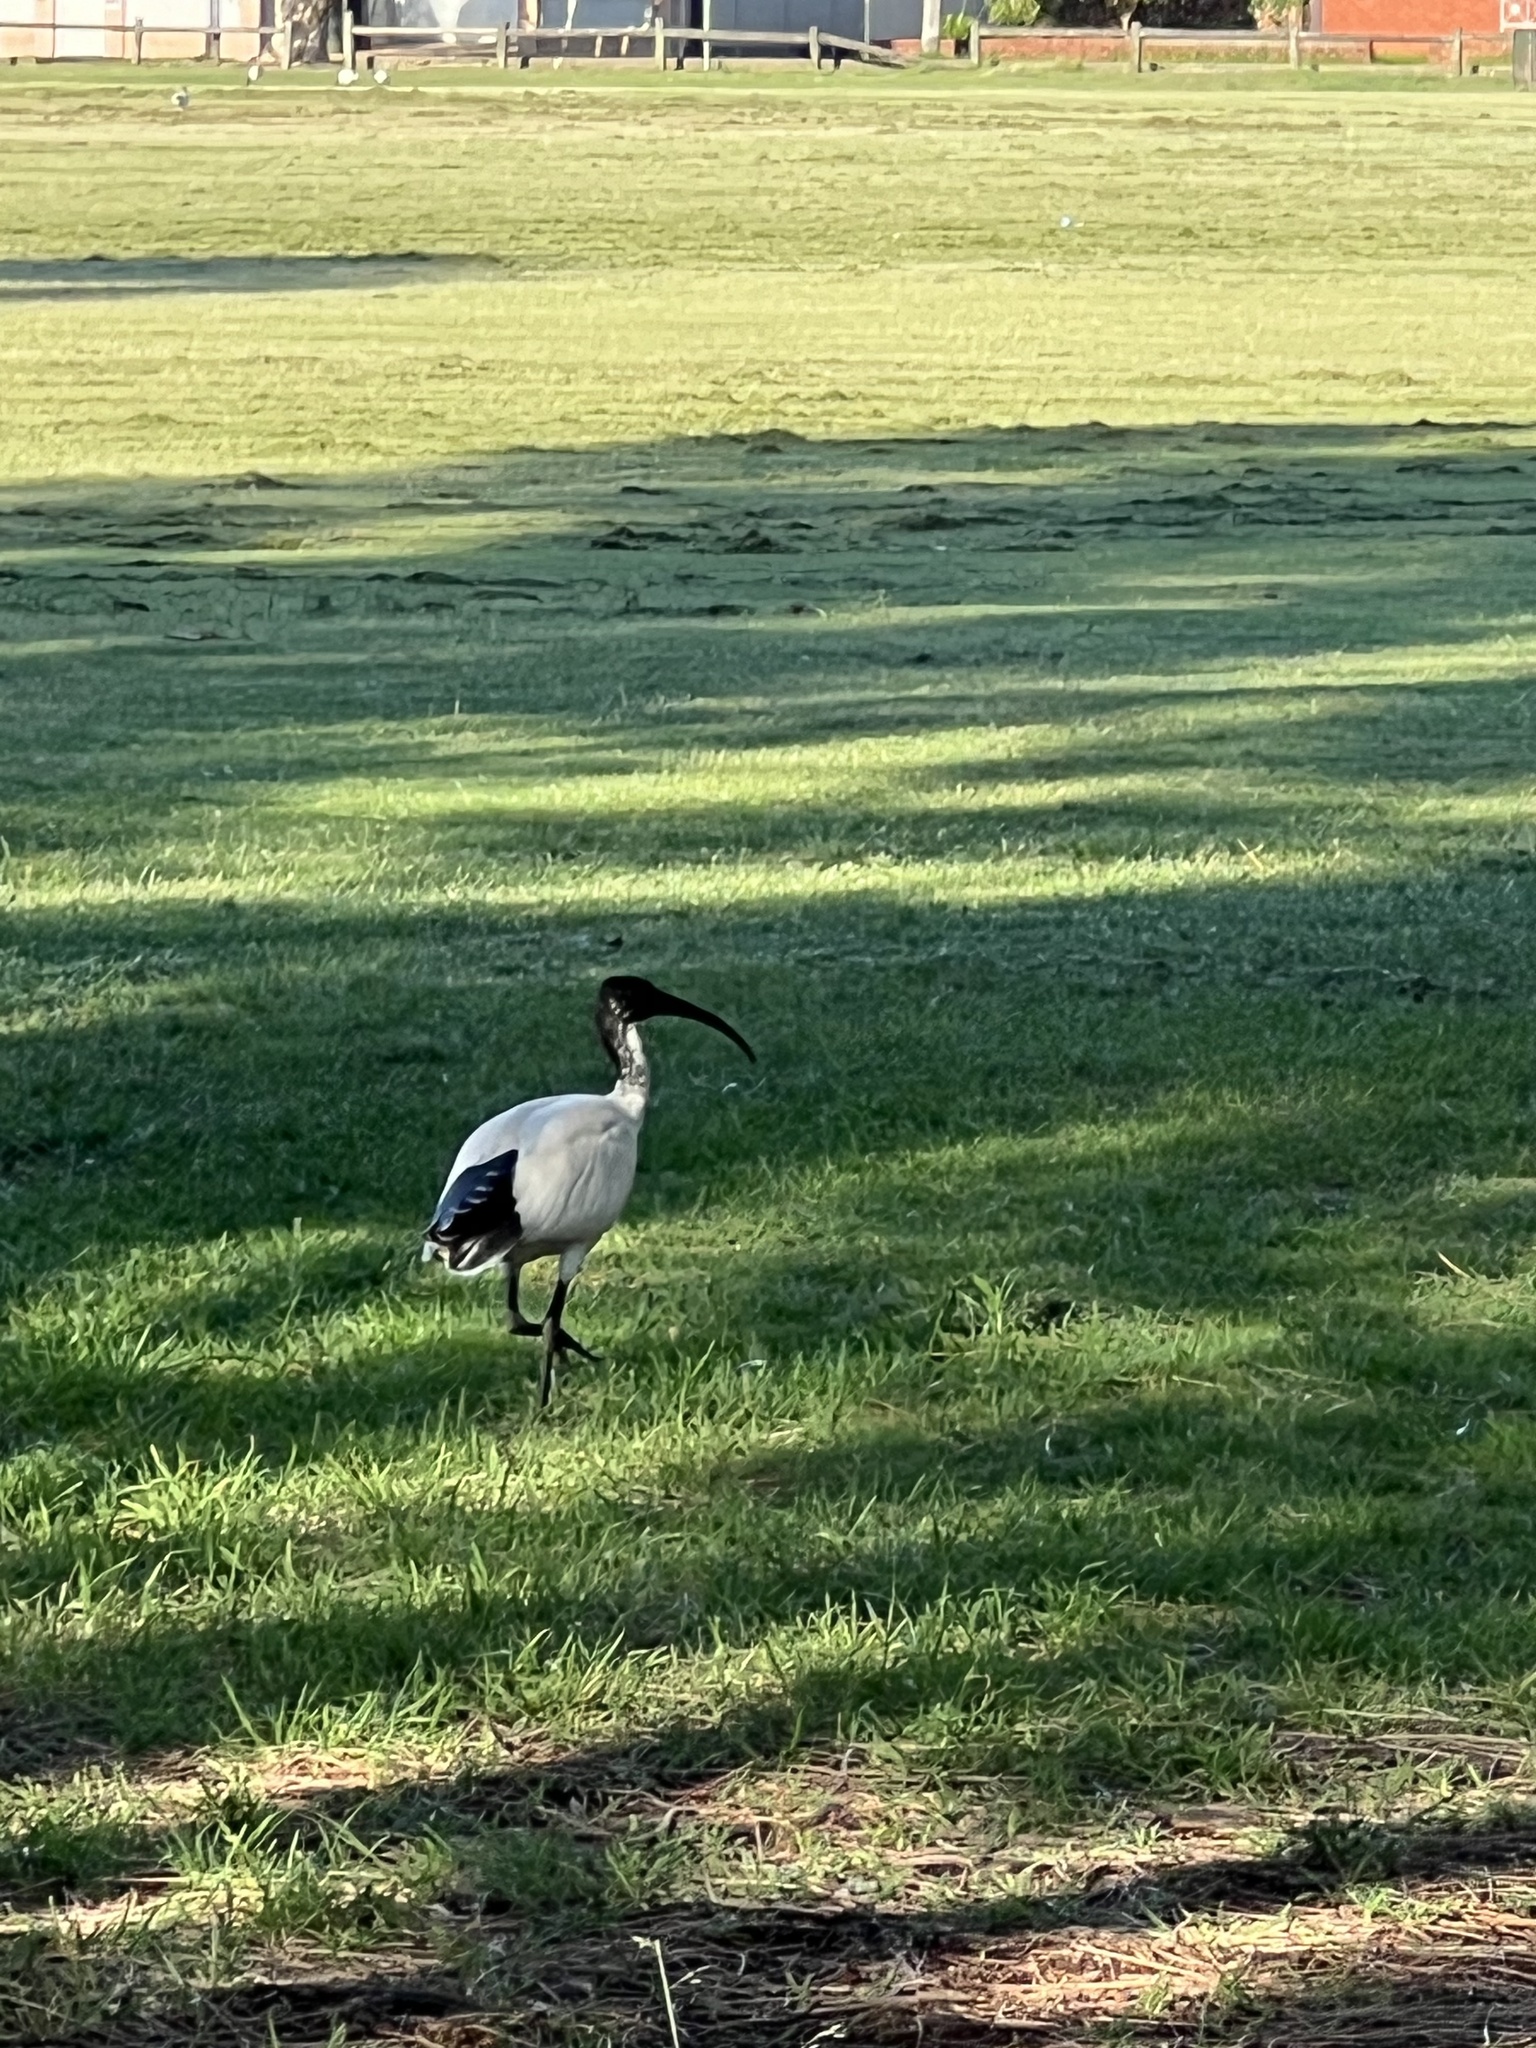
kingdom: Animalia
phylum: Chordata
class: Aves
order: Pelecaniformes
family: Threskiornithidae
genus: Threskiornis
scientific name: Threskiornis molucca
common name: Australian white ibis
